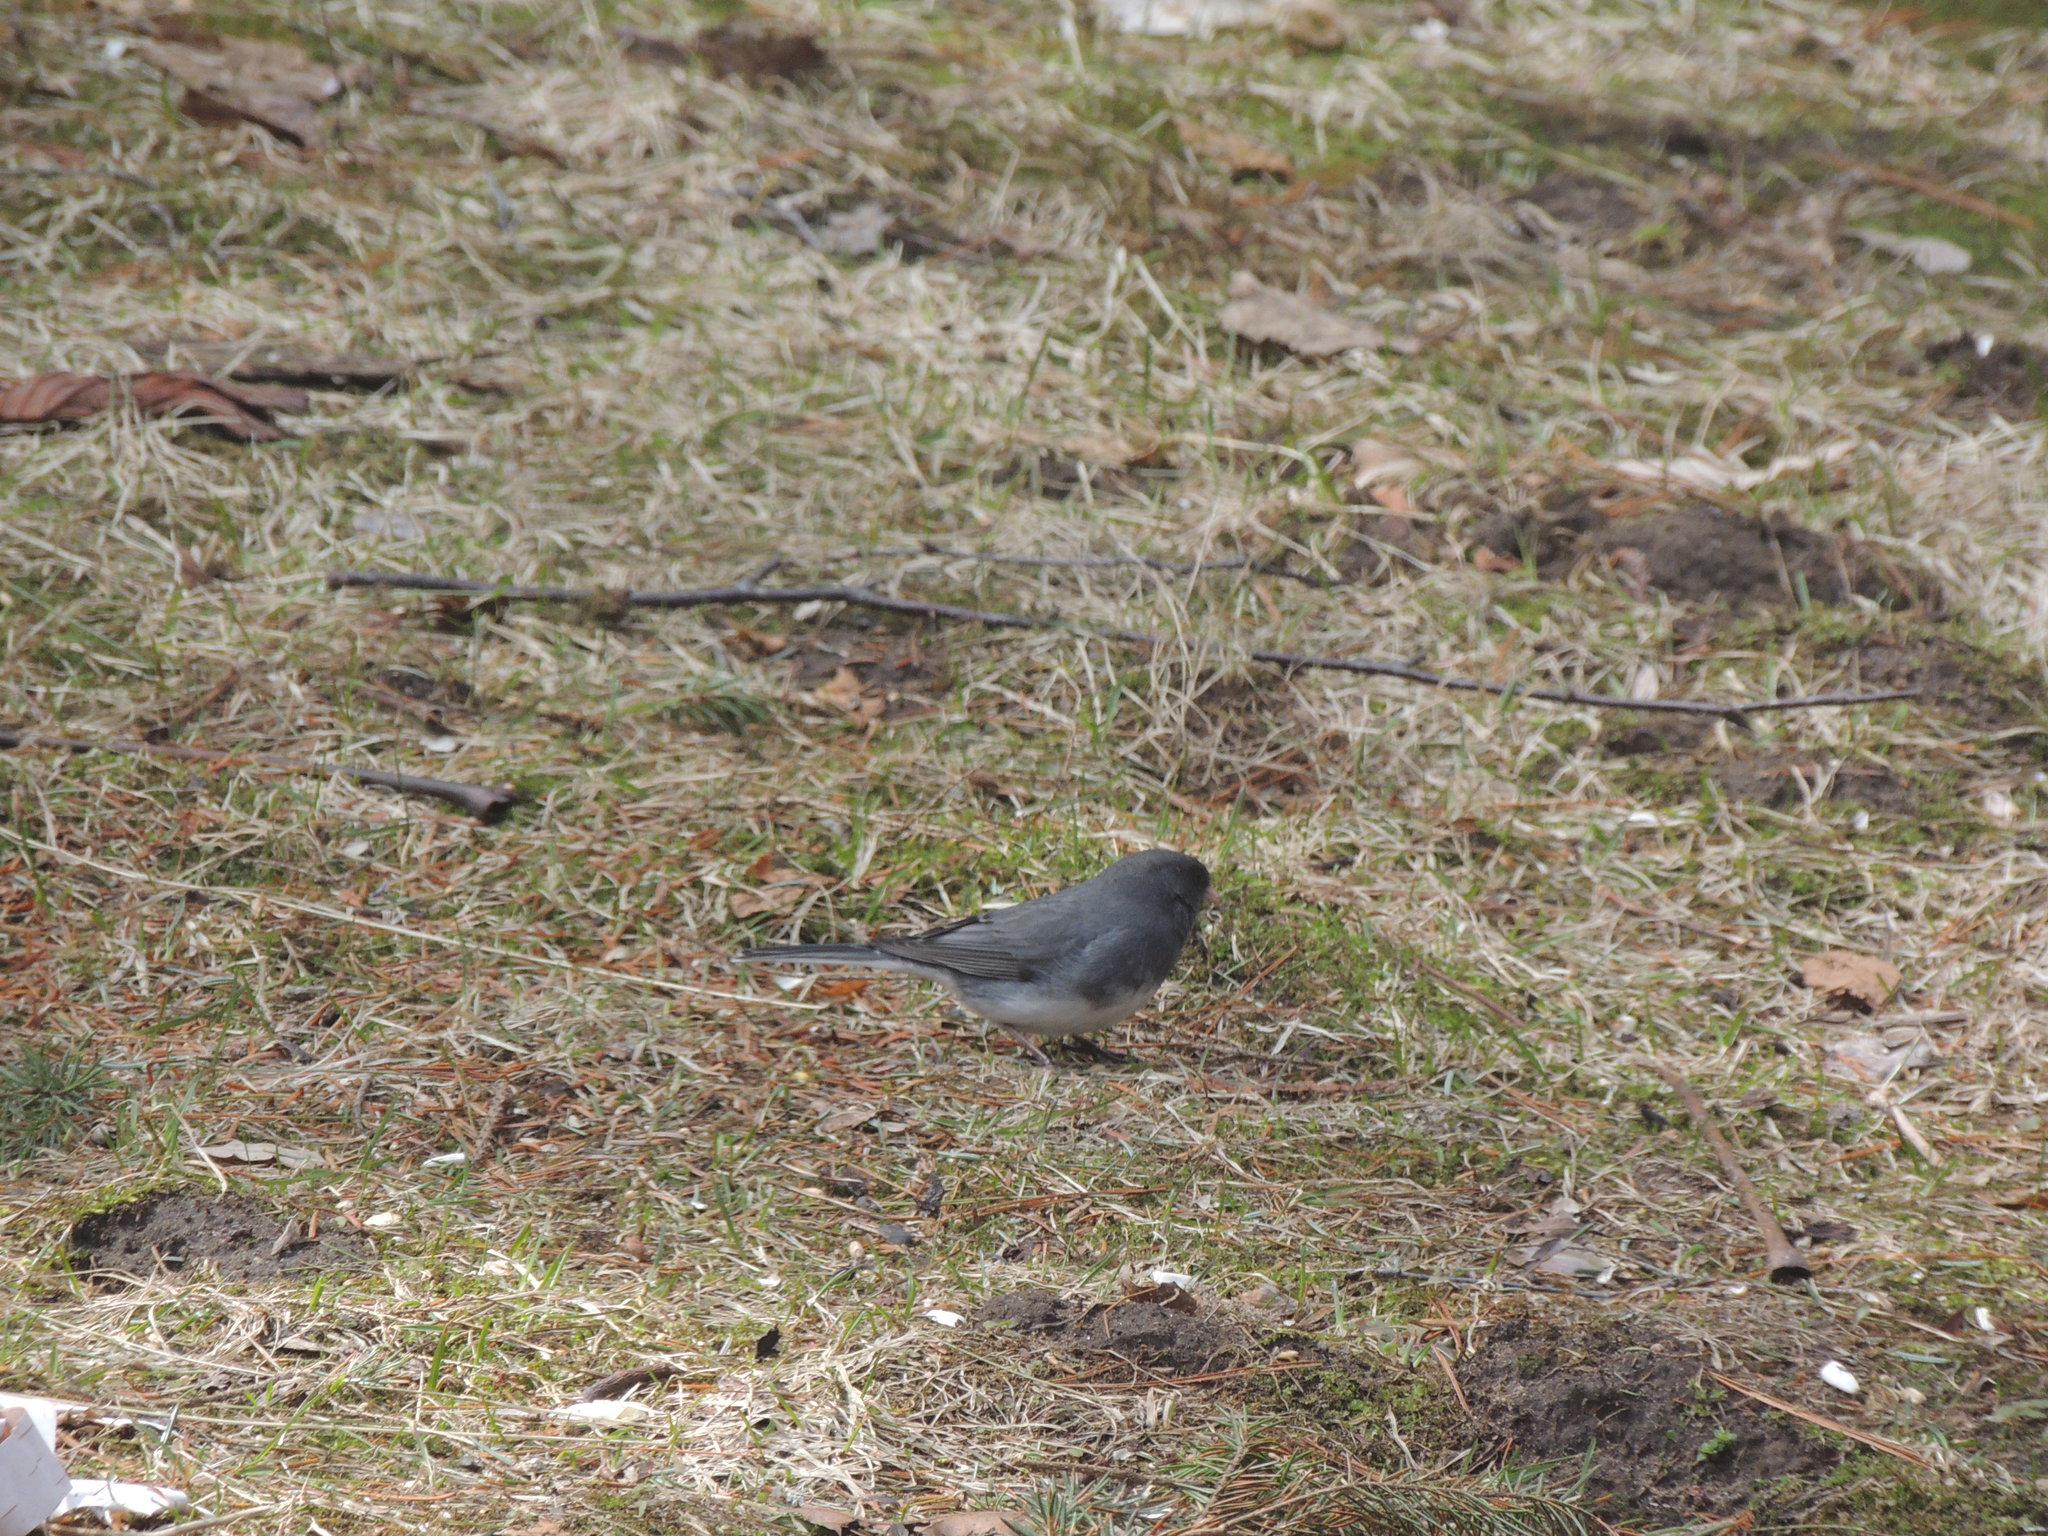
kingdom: Animalia
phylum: Chordata
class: Aves
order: Passeriformes
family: Passerellidae
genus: Junco
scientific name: Junco hyemalis
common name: Dark-eyed junco
